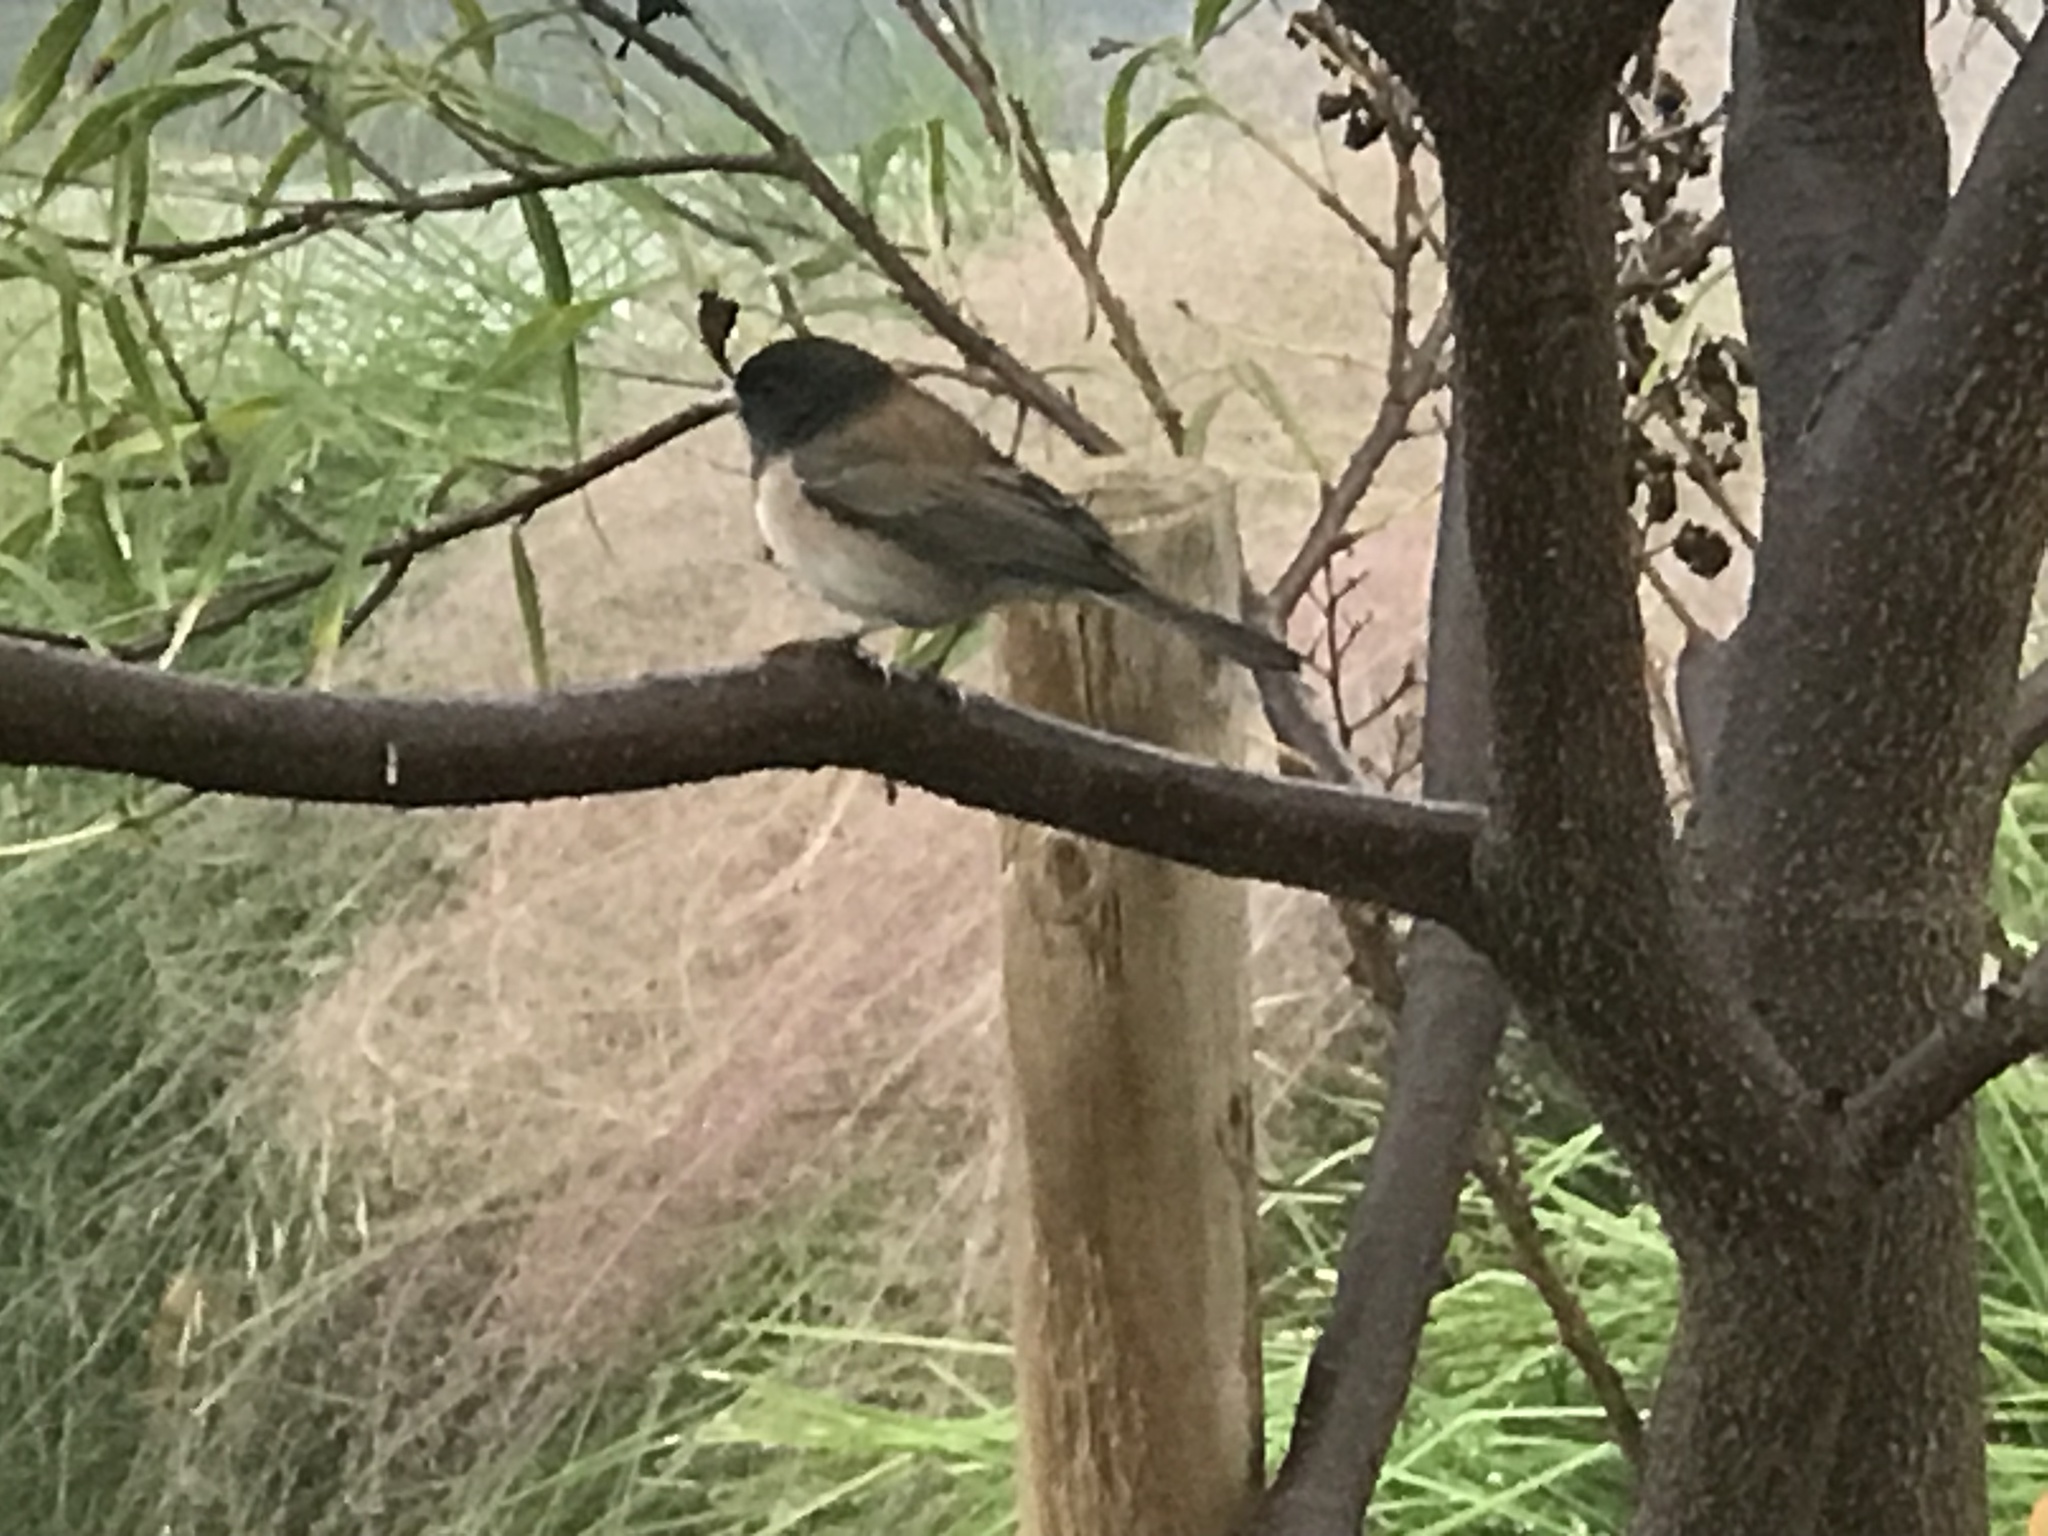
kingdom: Animalia
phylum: Chordata
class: Aves
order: Passeriformes
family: Passerellidae
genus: Junco
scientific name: Junco hyemalis
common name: Dark-eyed junco
